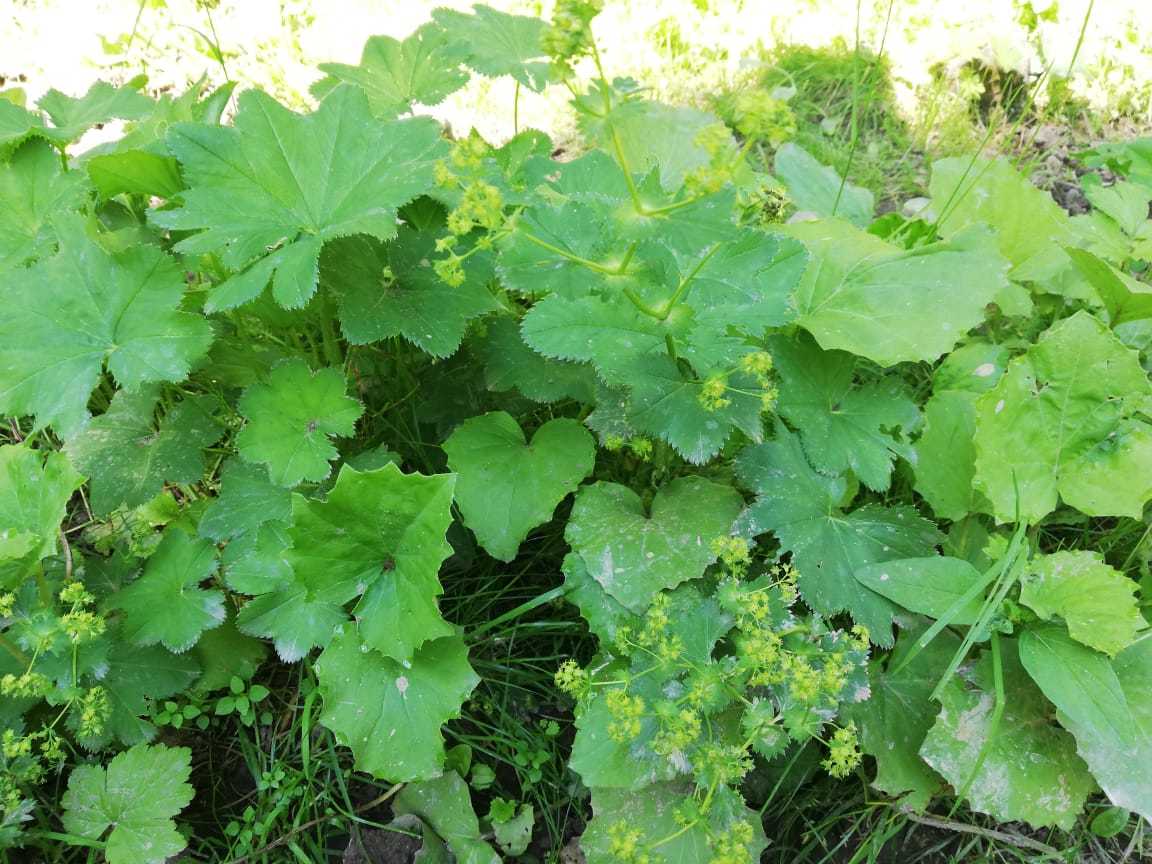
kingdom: Plantae
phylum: Tracheophyta
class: Magnoliopsida
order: Rosales
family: Rosaceae
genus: Alchemilla
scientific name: Alchemilla
